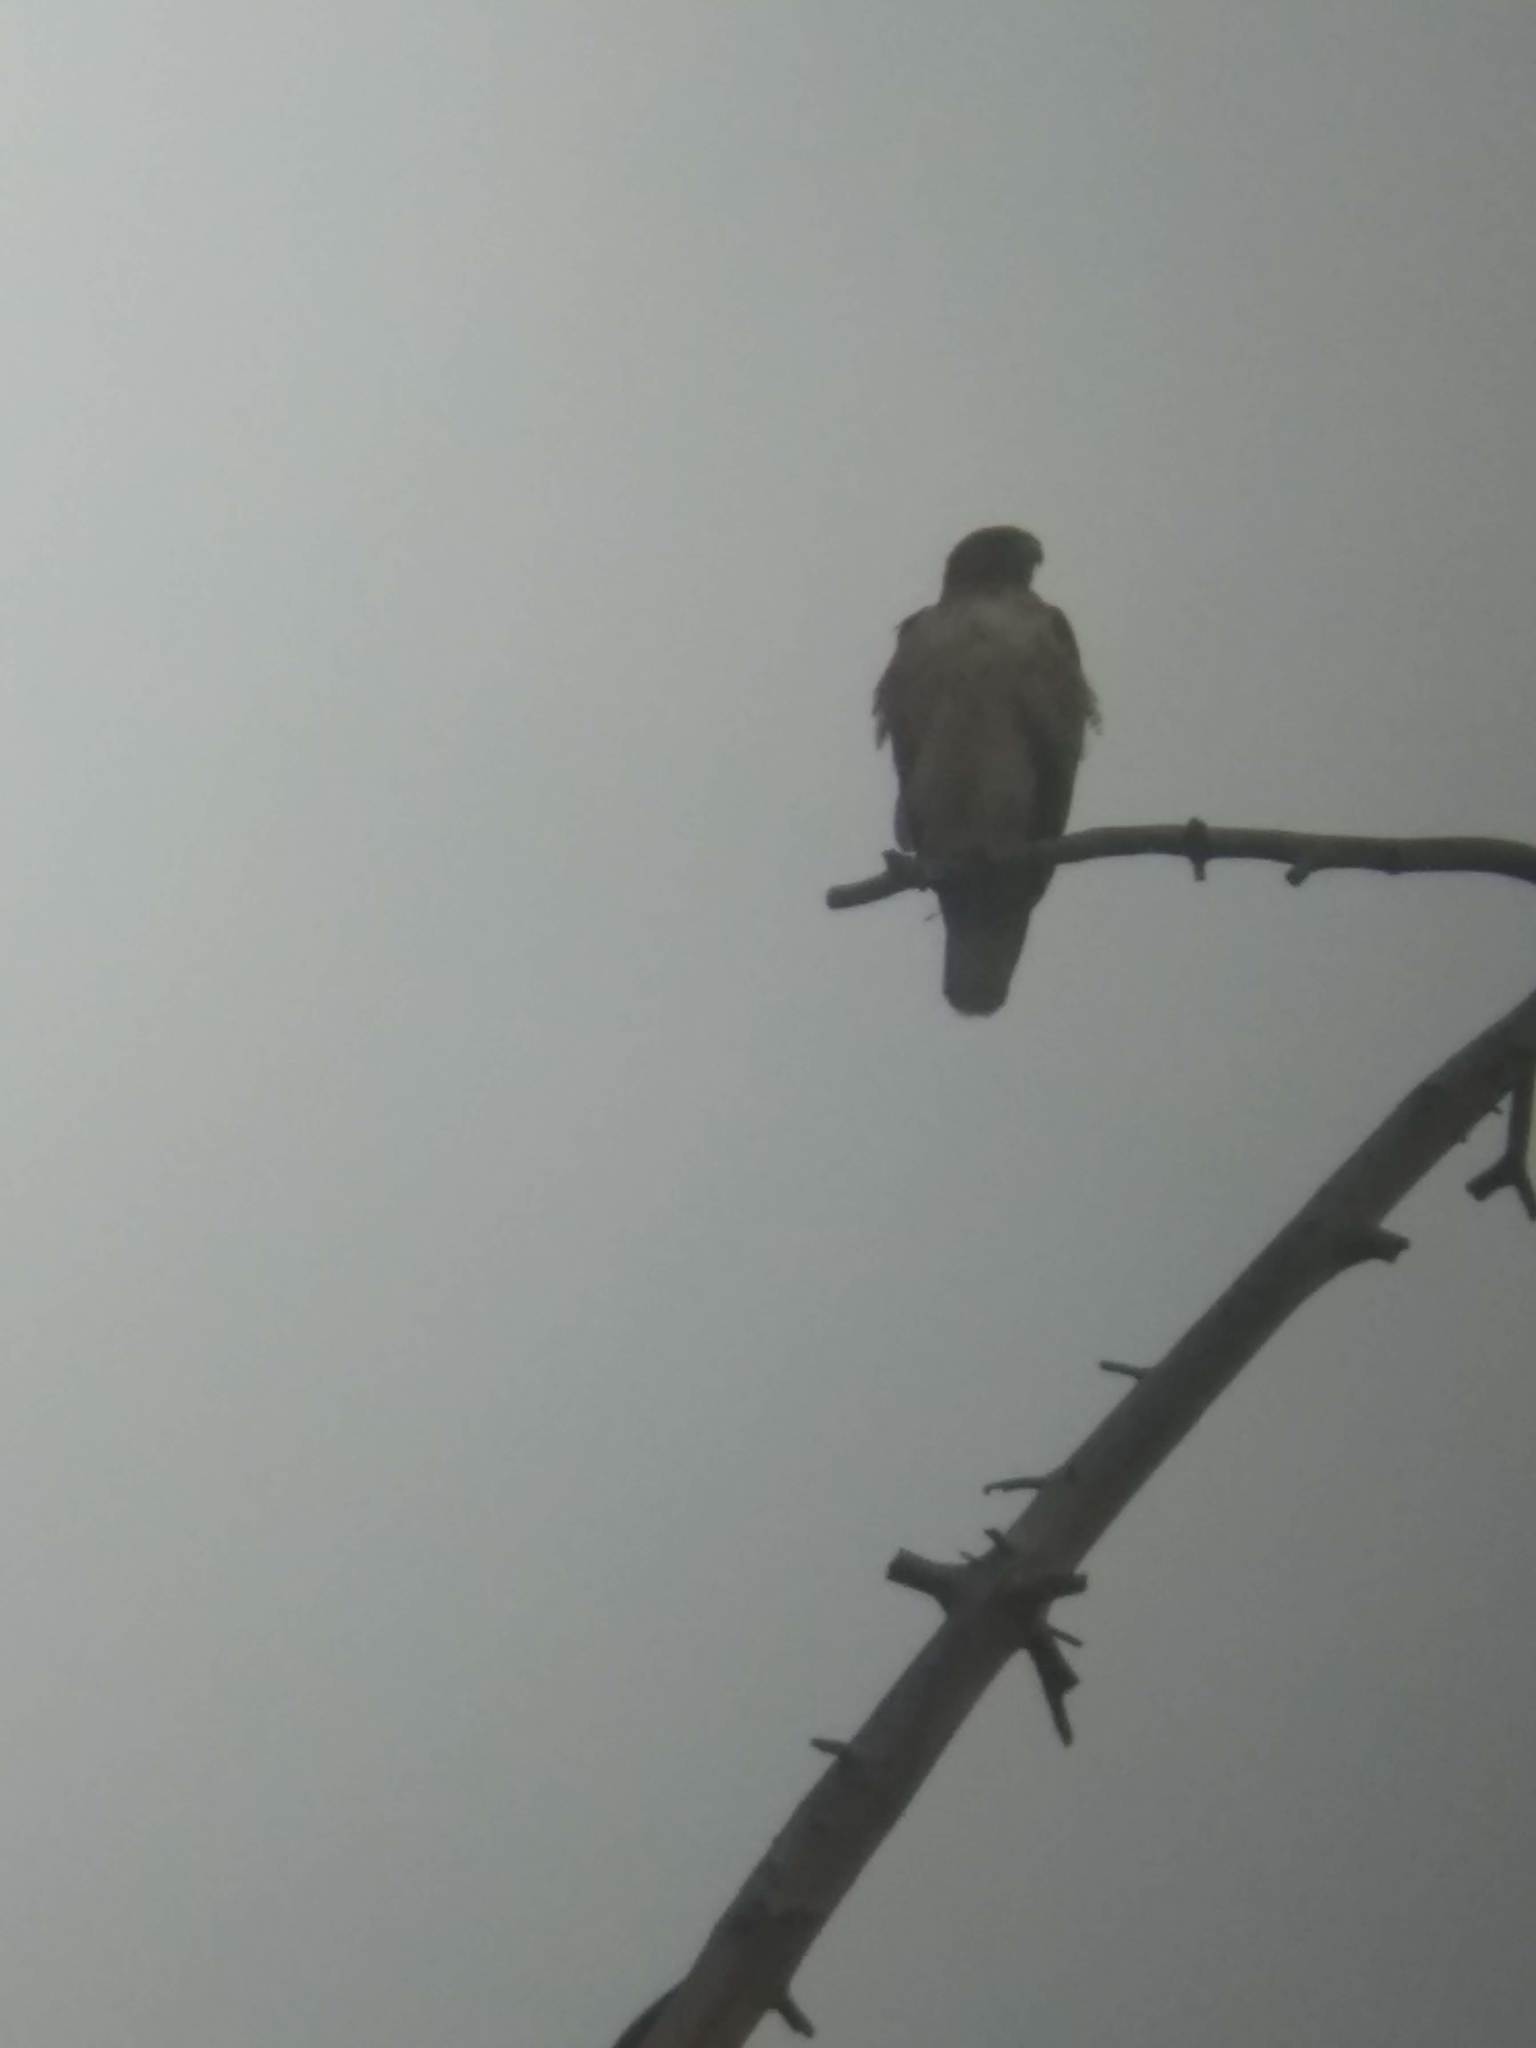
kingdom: Animalia
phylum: Chordata
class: Aves
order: Accipitriformes
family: Accipitridae
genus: Buteo
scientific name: Buteo jamaicensis
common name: Red-tailed hawk
